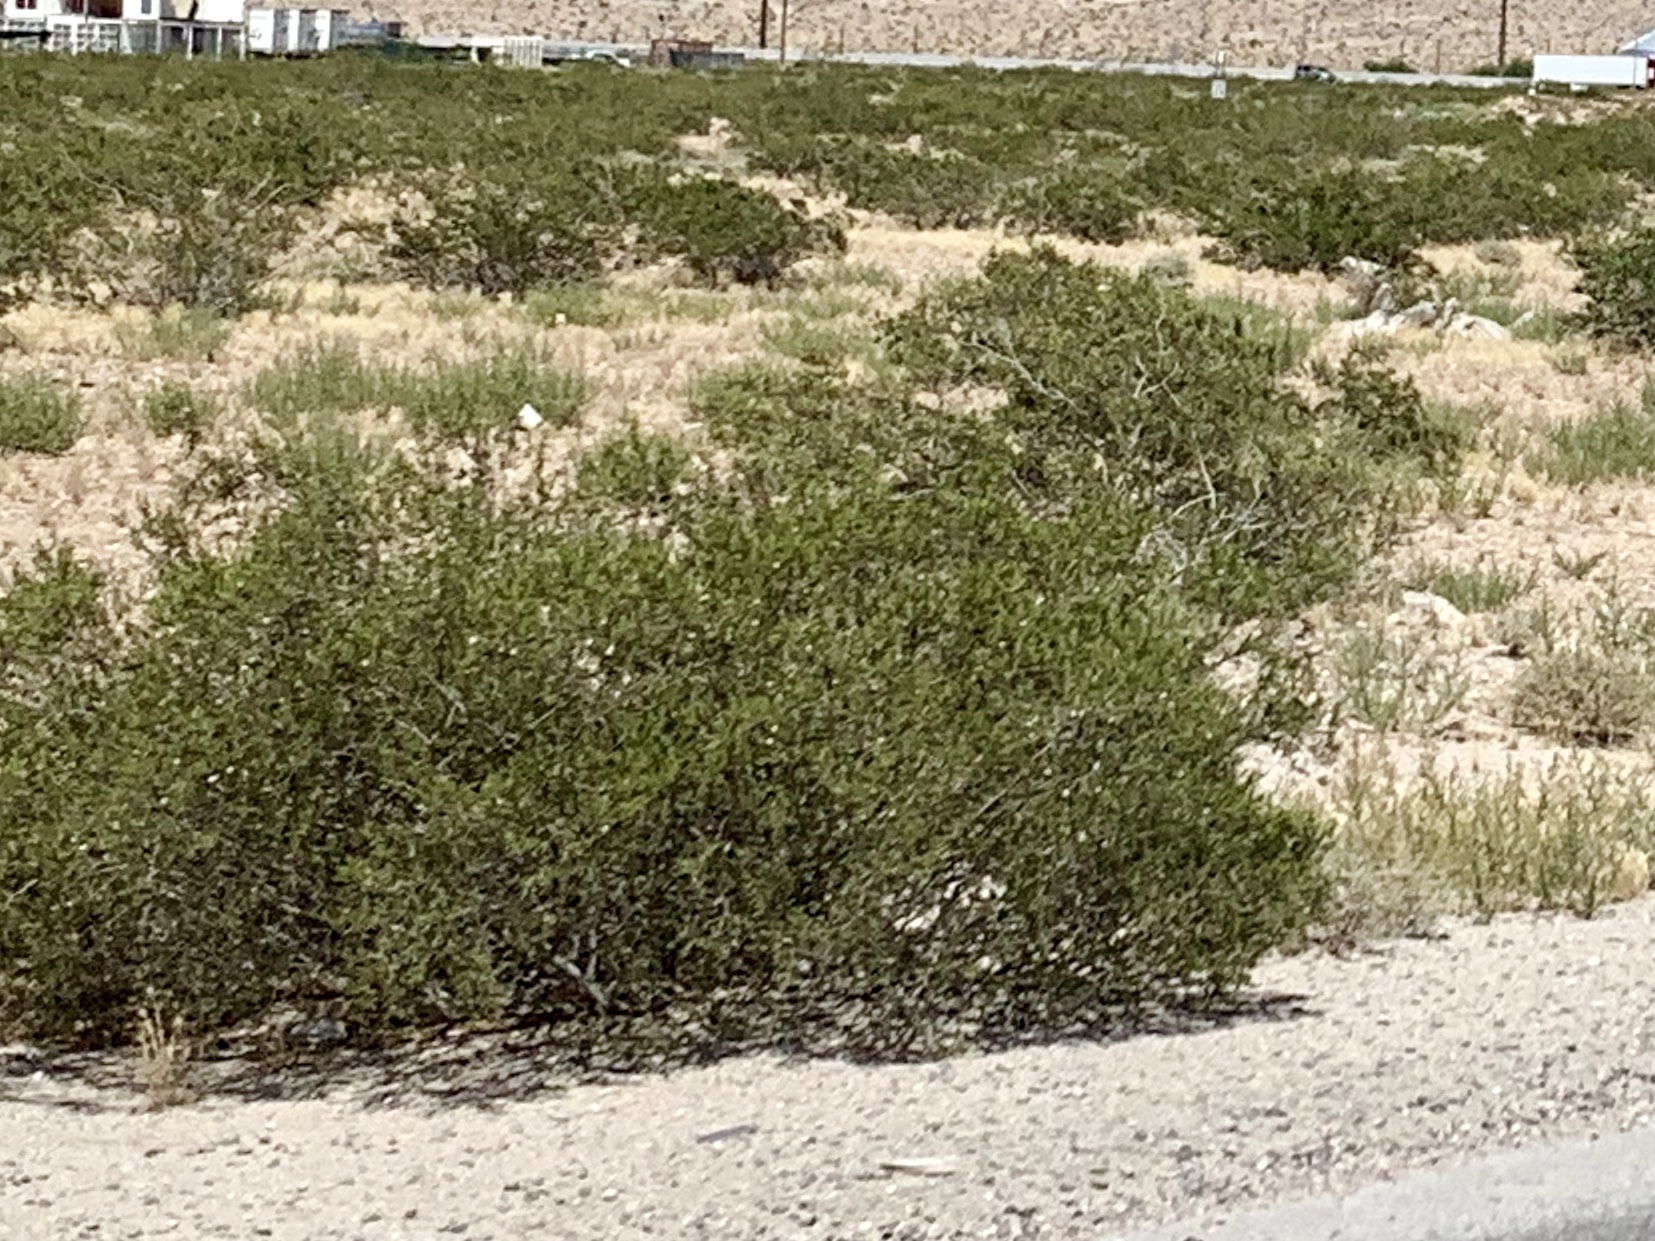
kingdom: Plantae
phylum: Tracheophyta
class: Magnoliopsida
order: Zygophyllales
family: Zygophyllaceae
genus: Larrea
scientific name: Larrea tridentata
